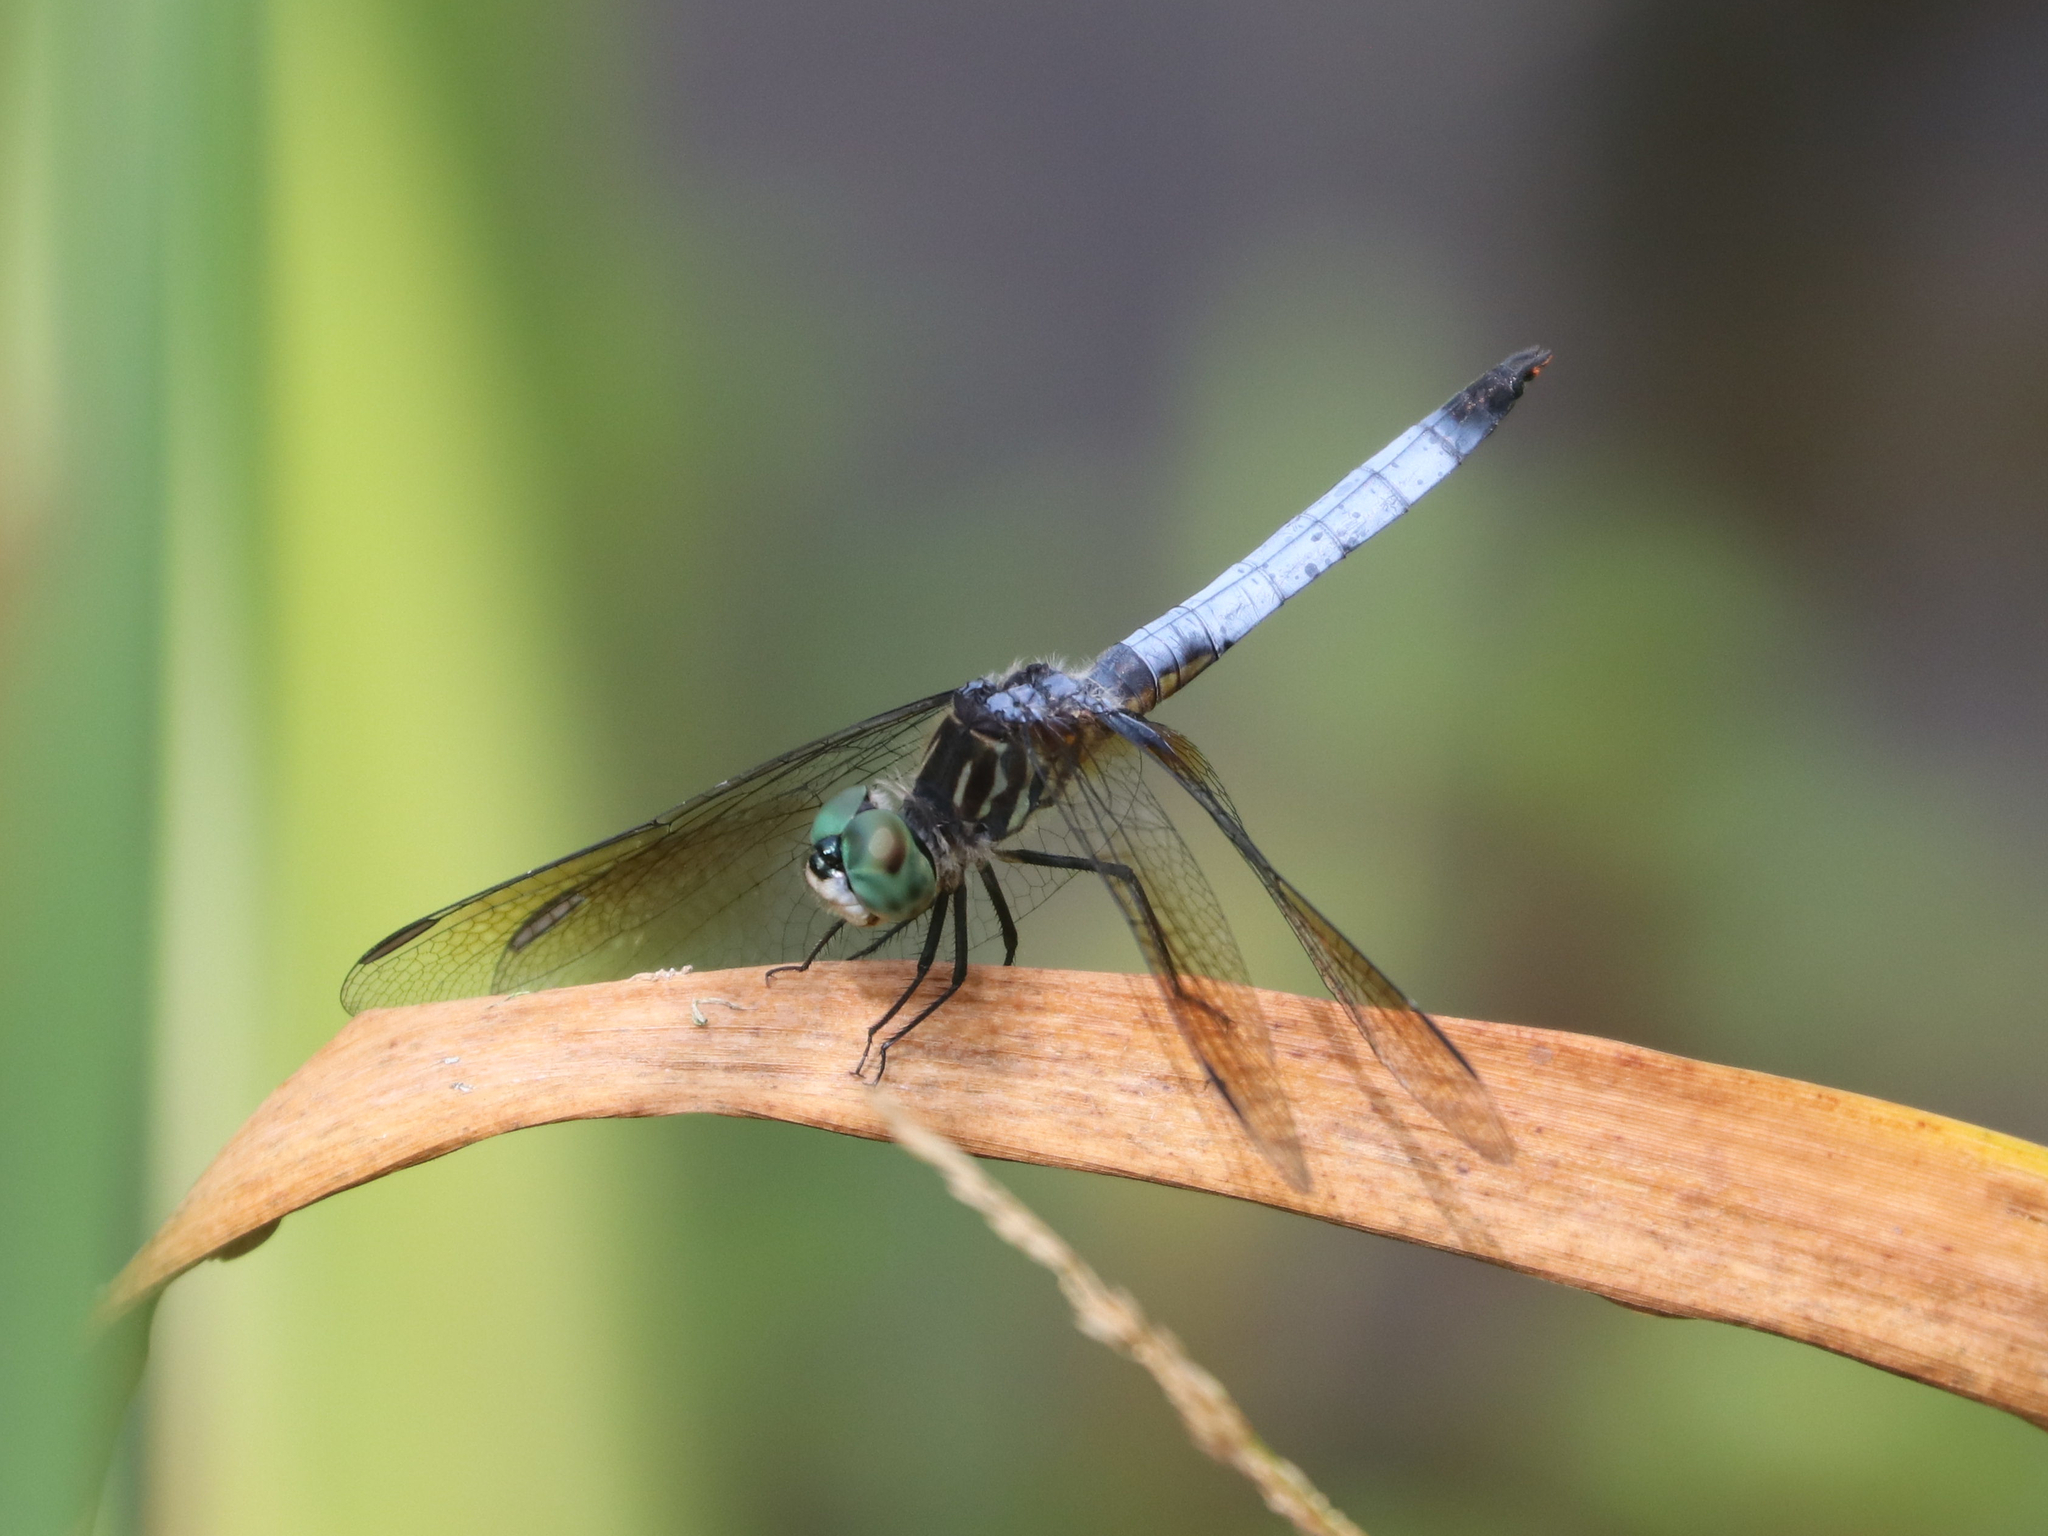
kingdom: Animalia
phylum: Arthropoda
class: Insecta
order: Odonata
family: Libellulidae
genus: Pachydiplax
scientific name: Pachydiplax longipennis
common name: Blue dasher
